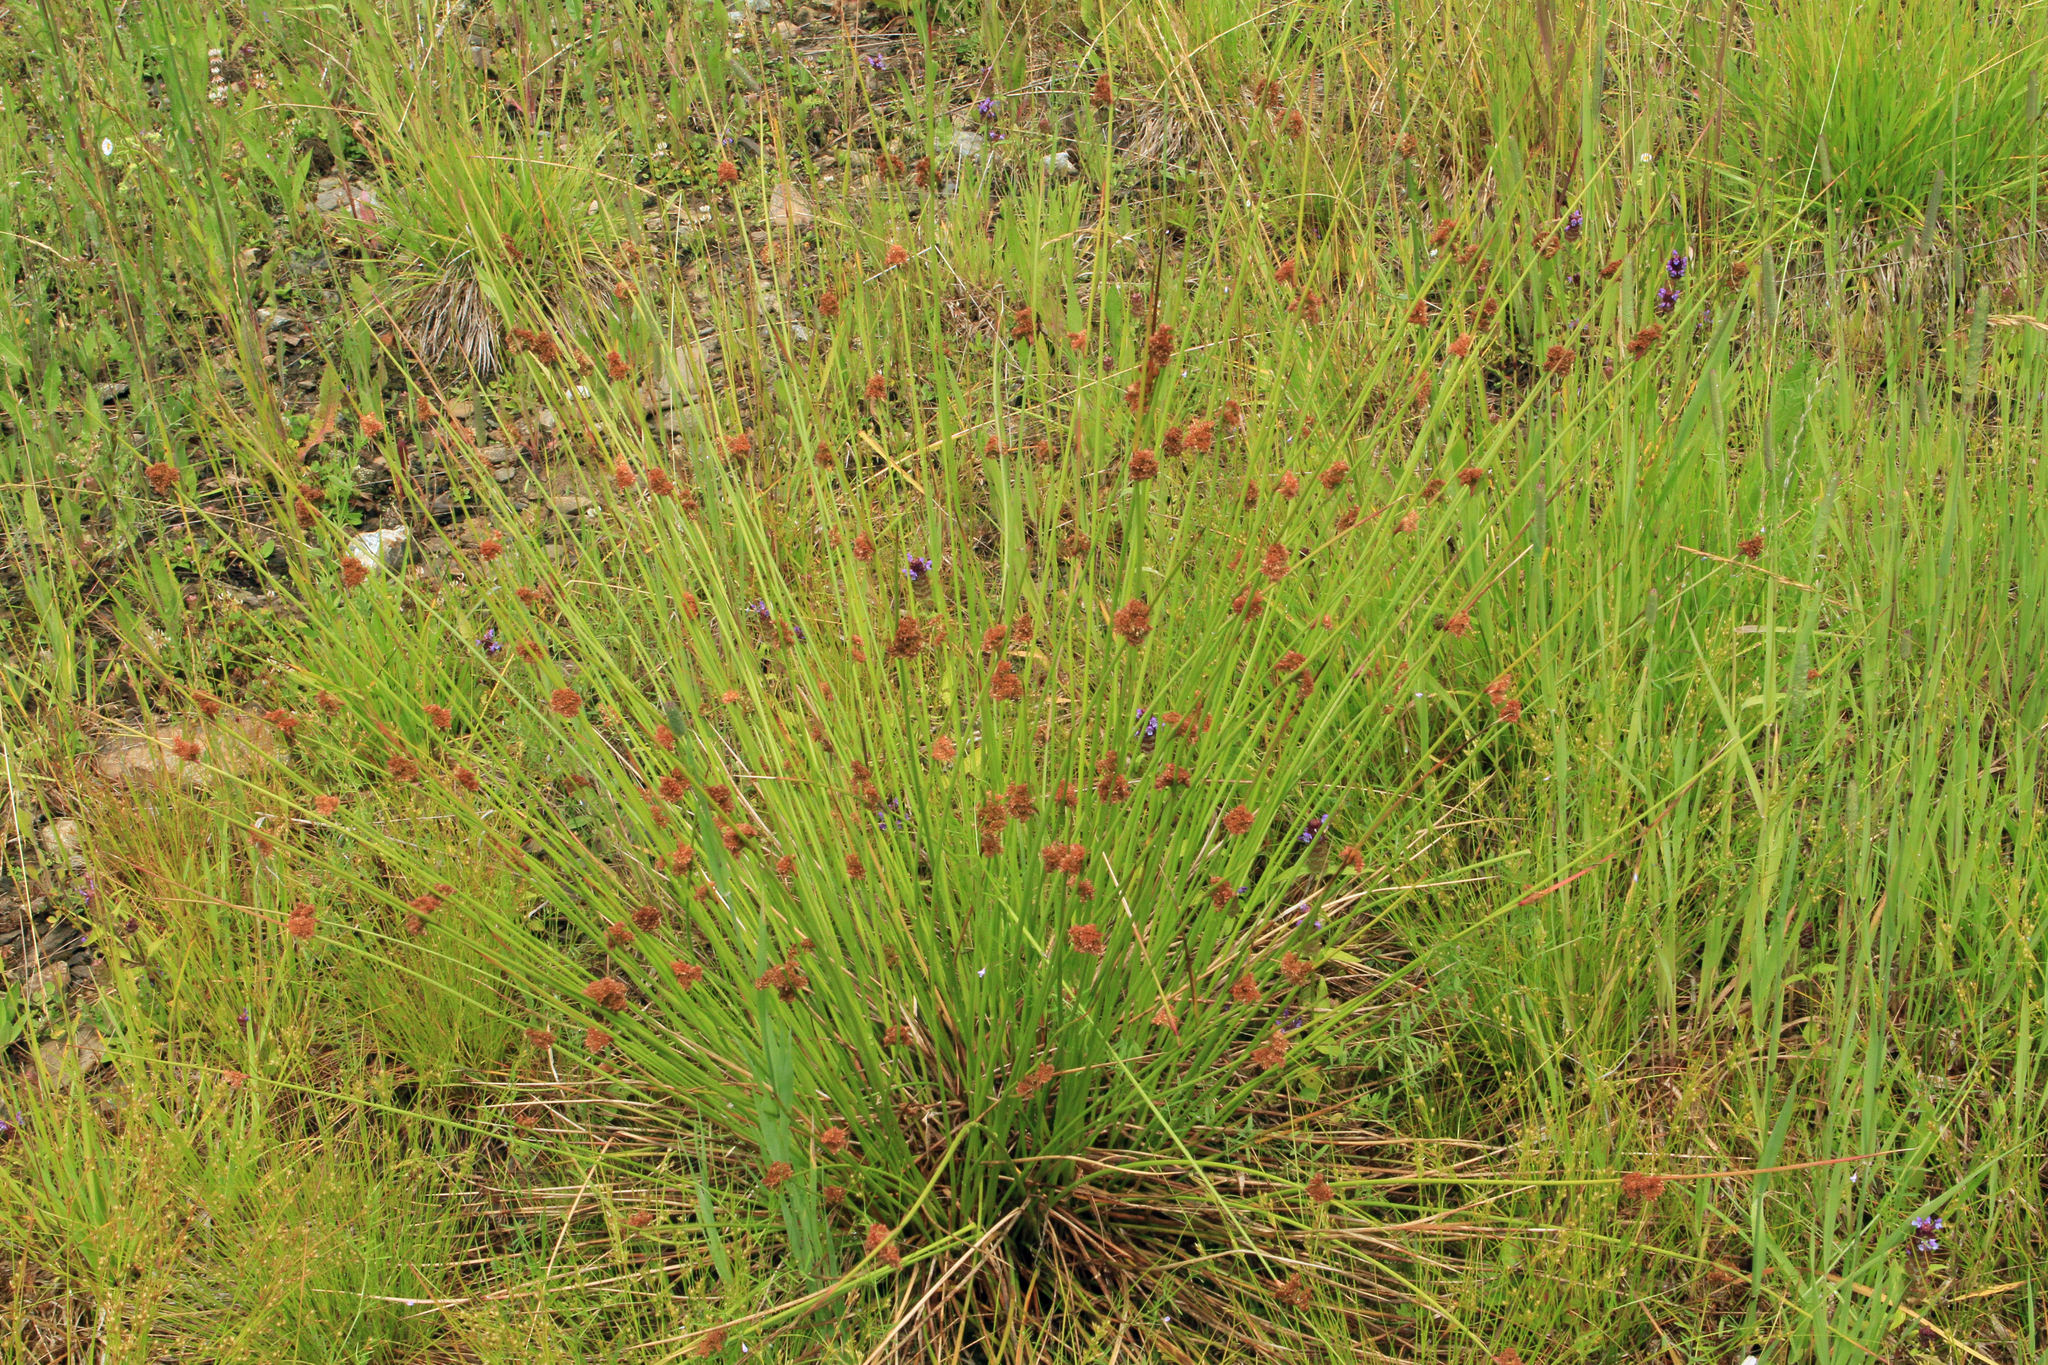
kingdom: Plantae
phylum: Tracheophyta
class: Liliopsida
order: Poales
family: Juncaceae
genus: Juncus
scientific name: Juncus effusus
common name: Soft rush
